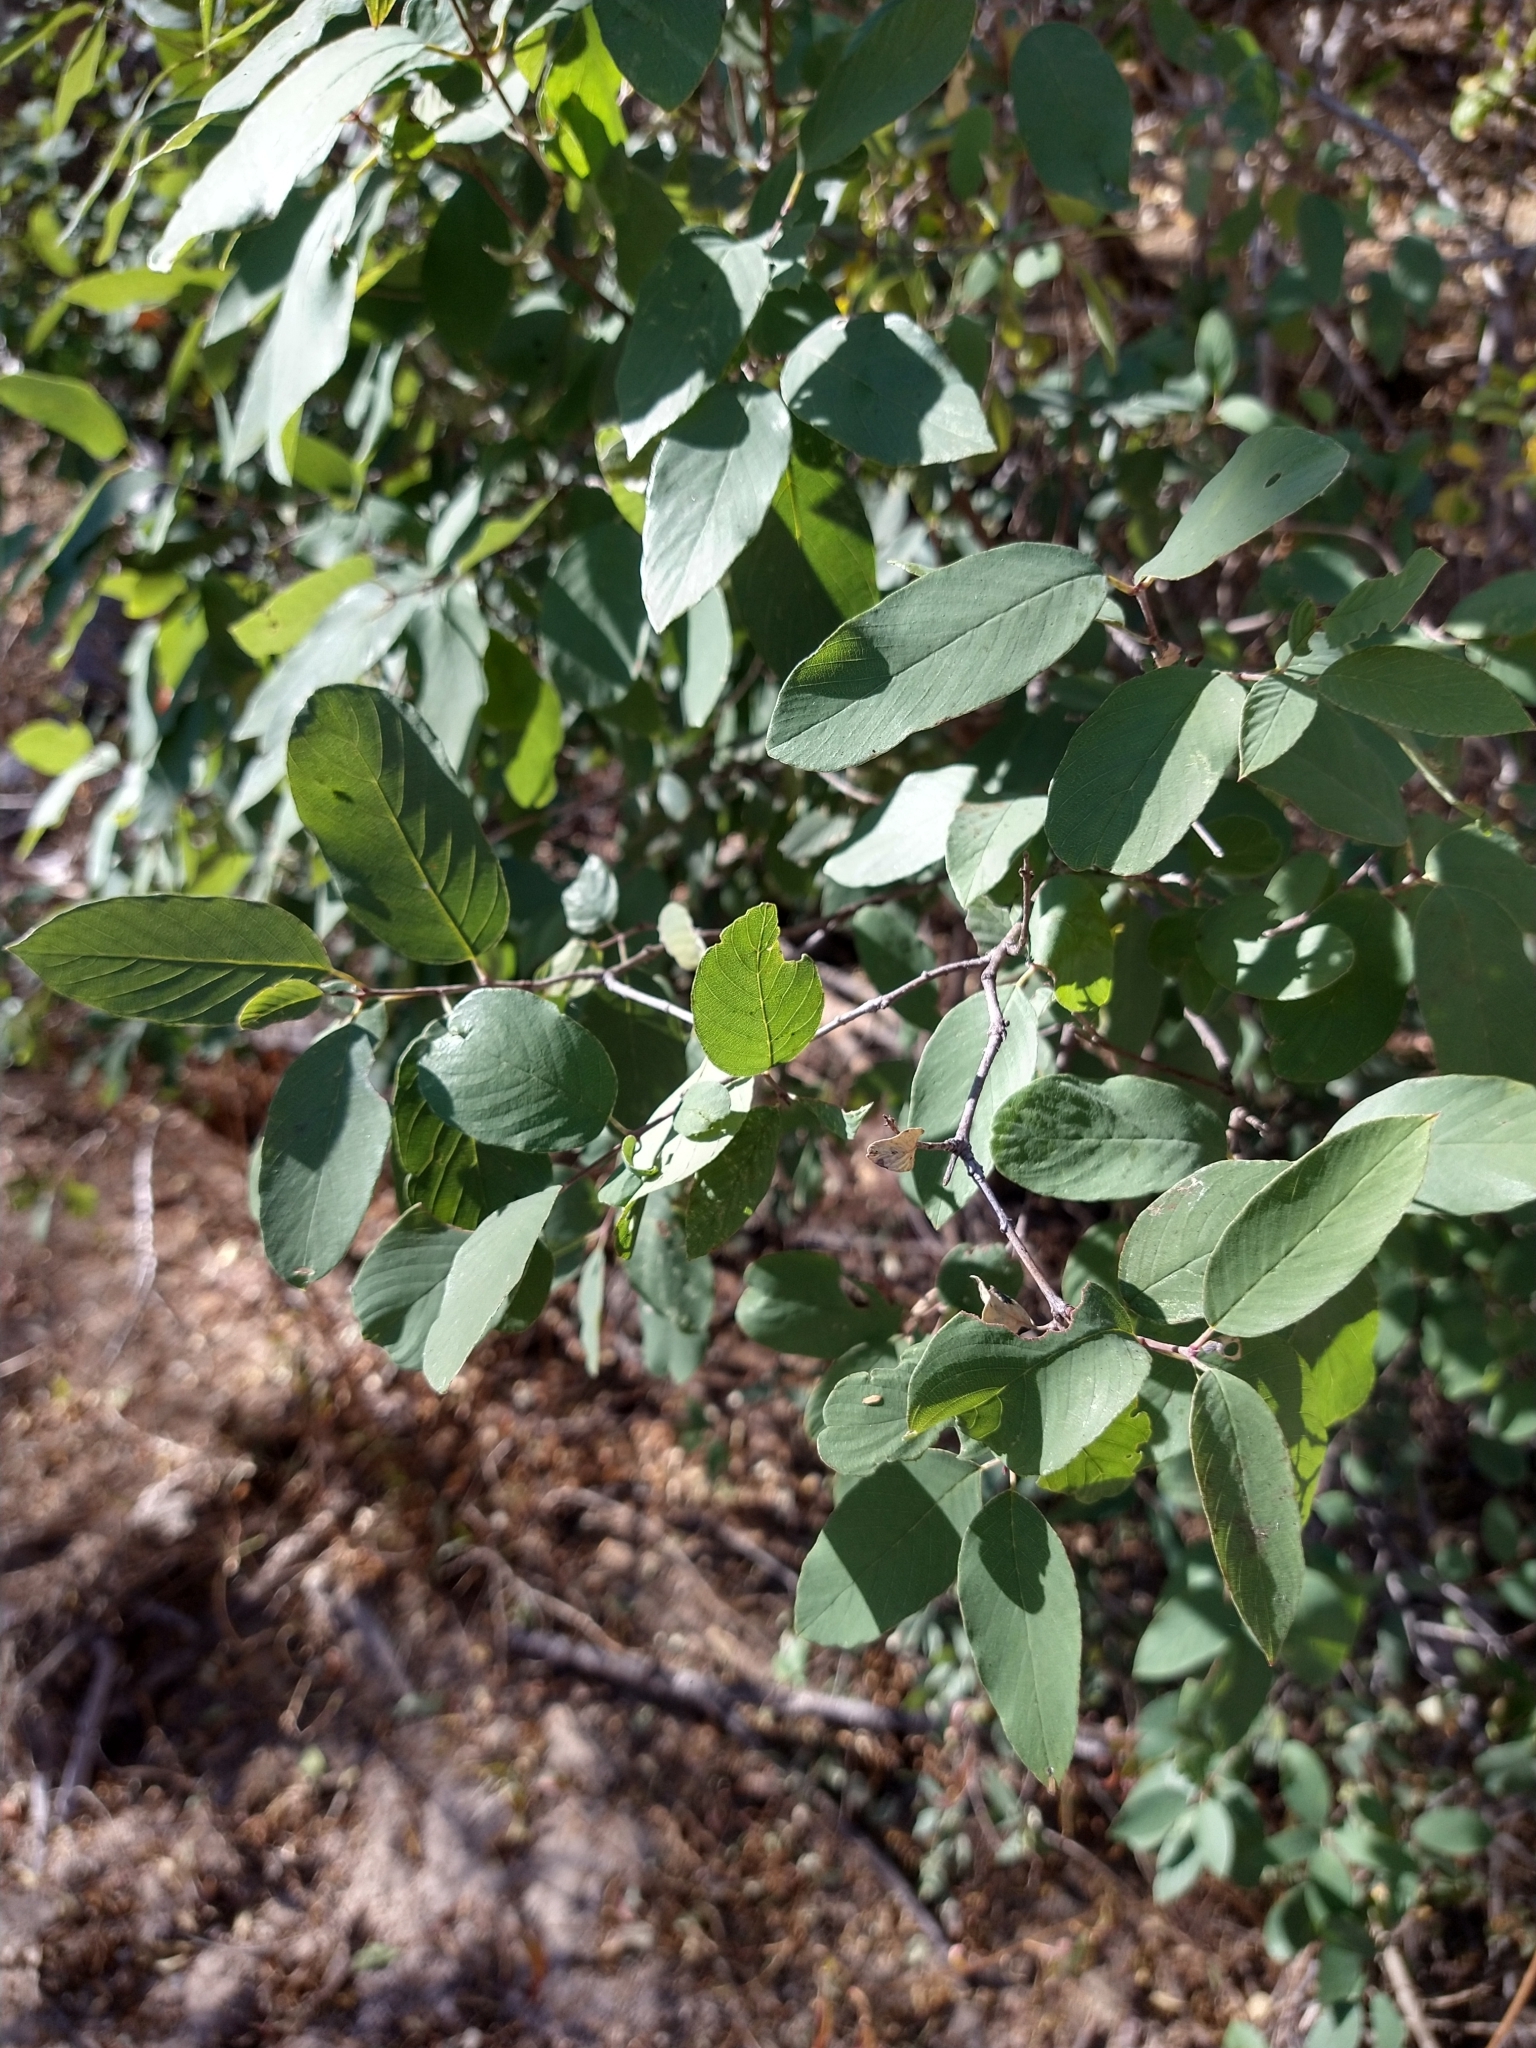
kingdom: Plantae
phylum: Tracheophyta
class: Magnoliopsida
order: Rosales
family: Rhamnaceae
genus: Karwinskia
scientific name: Karwinskia humboldtiana
